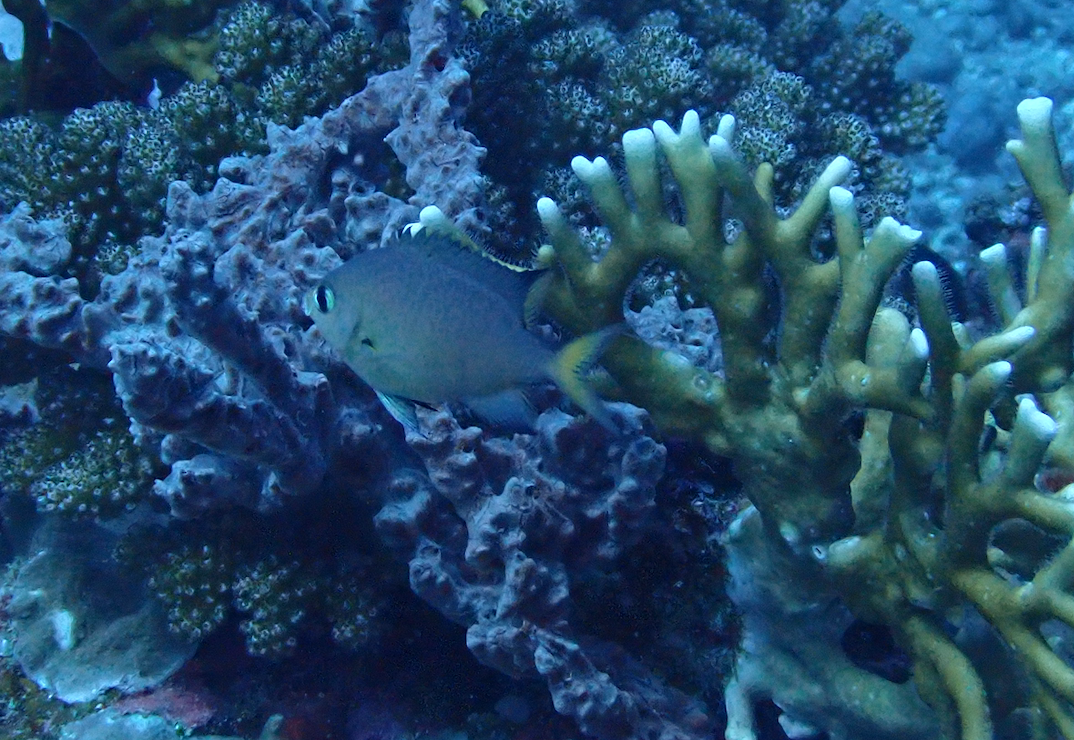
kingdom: Animalia
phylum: Chordata
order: Perciformes
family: Pomacentridae
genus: Chromis
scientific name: Chromis atripes
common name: Dark-fin chromis
